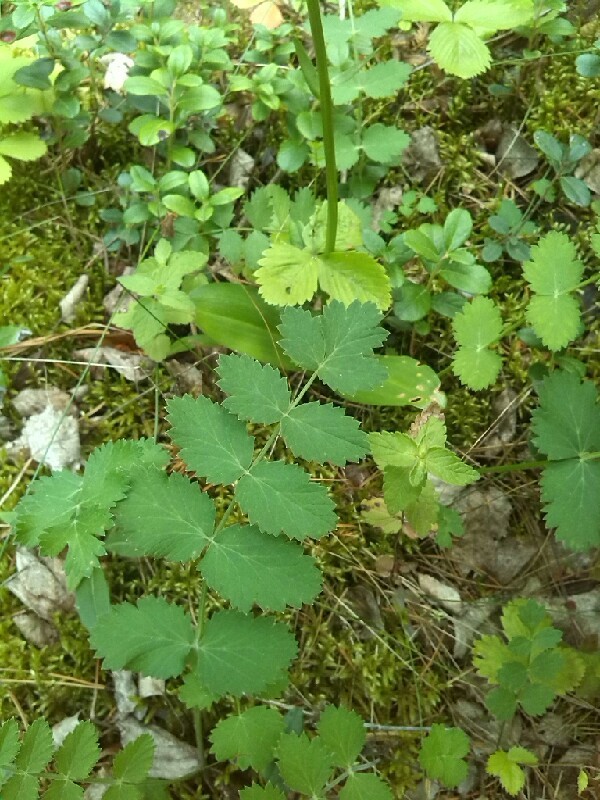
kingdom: Plantae
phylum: Tracheophyta
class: Magnoliopsida
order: Apiales
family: Apiaceae
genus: Pimpinella
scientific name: Pimpinella saxifraga
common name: Burnet-saxifrage
